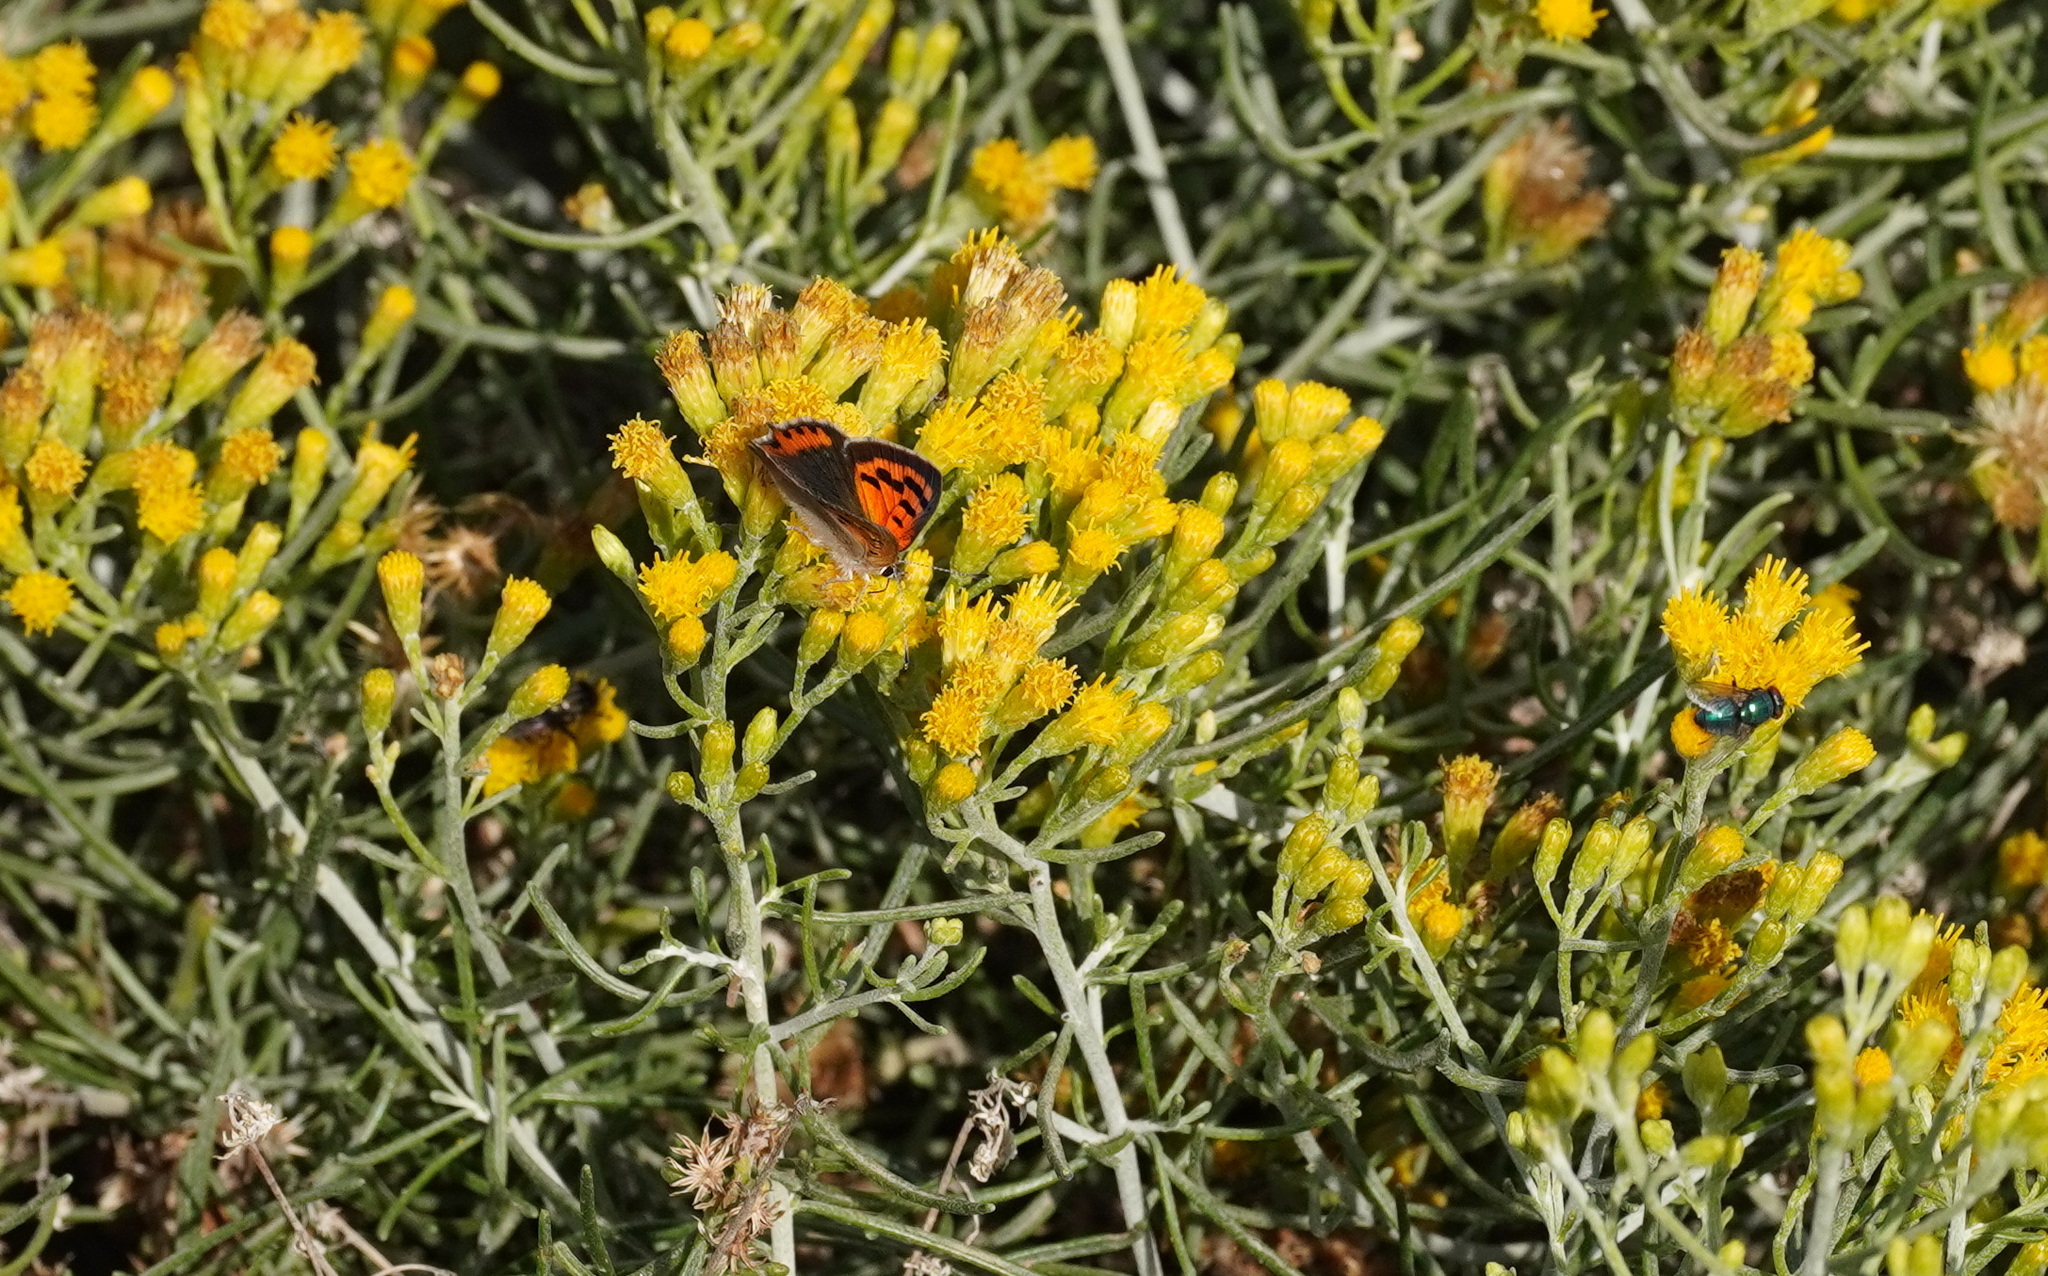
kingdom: Animalia
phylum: Arthropoda
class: Insecta
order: Lepidoptera
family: Lycaenidae
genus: Lycaena
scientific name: Lycaena phlaeas
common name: Small copper
